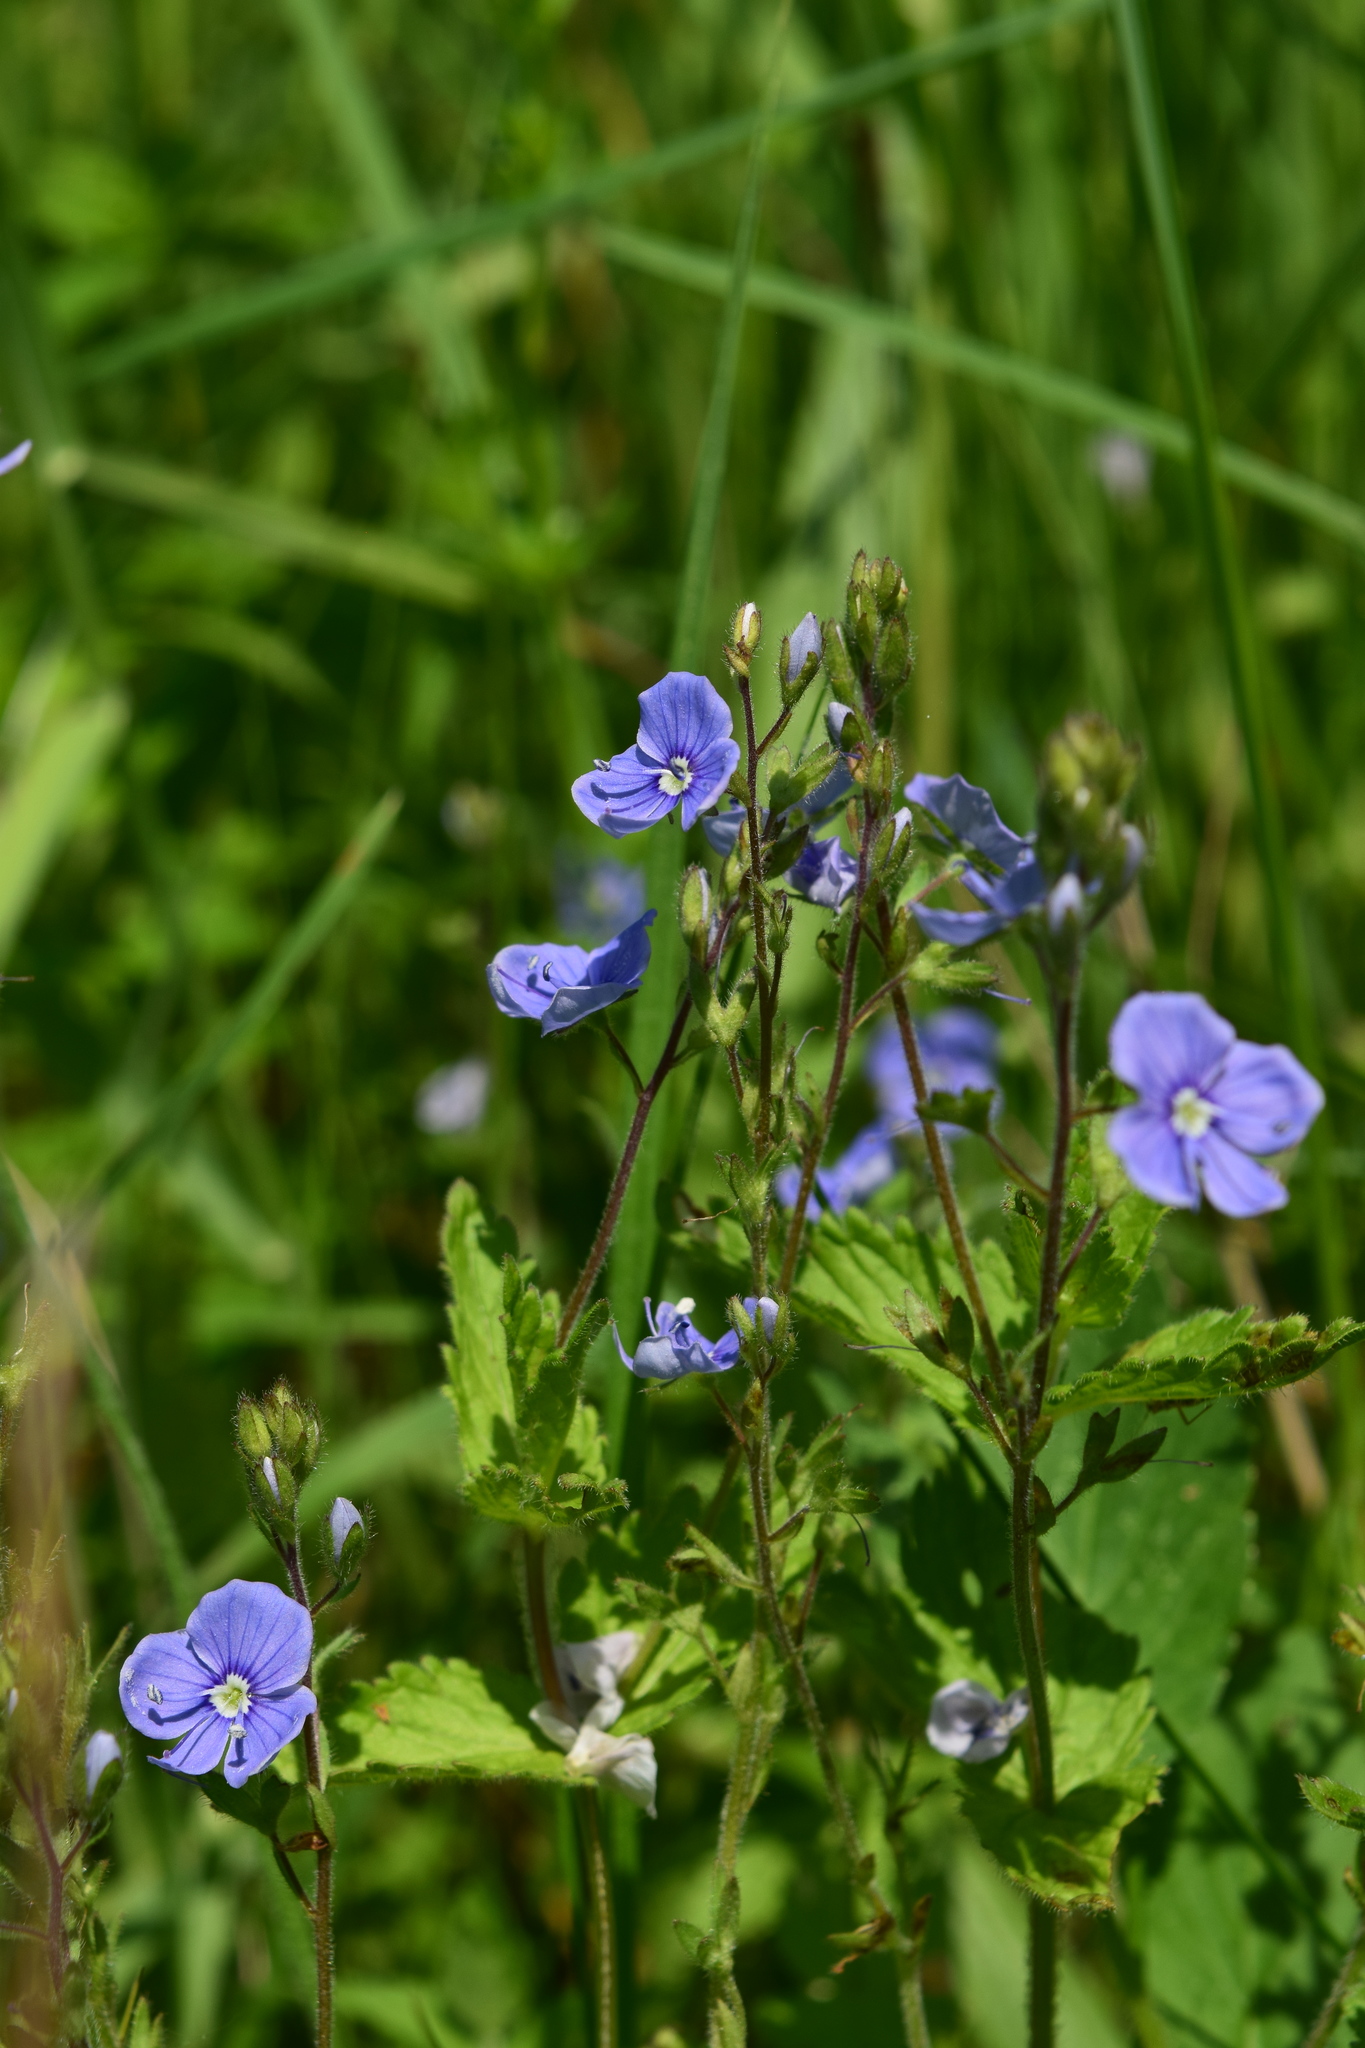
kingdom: Plantae
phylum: Tracheophyta
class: Magnoliopsida
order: Lamiales
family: Plantaginaceae
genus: Veronica
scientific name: Veronica chamaedrys
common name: Germander speedwell
